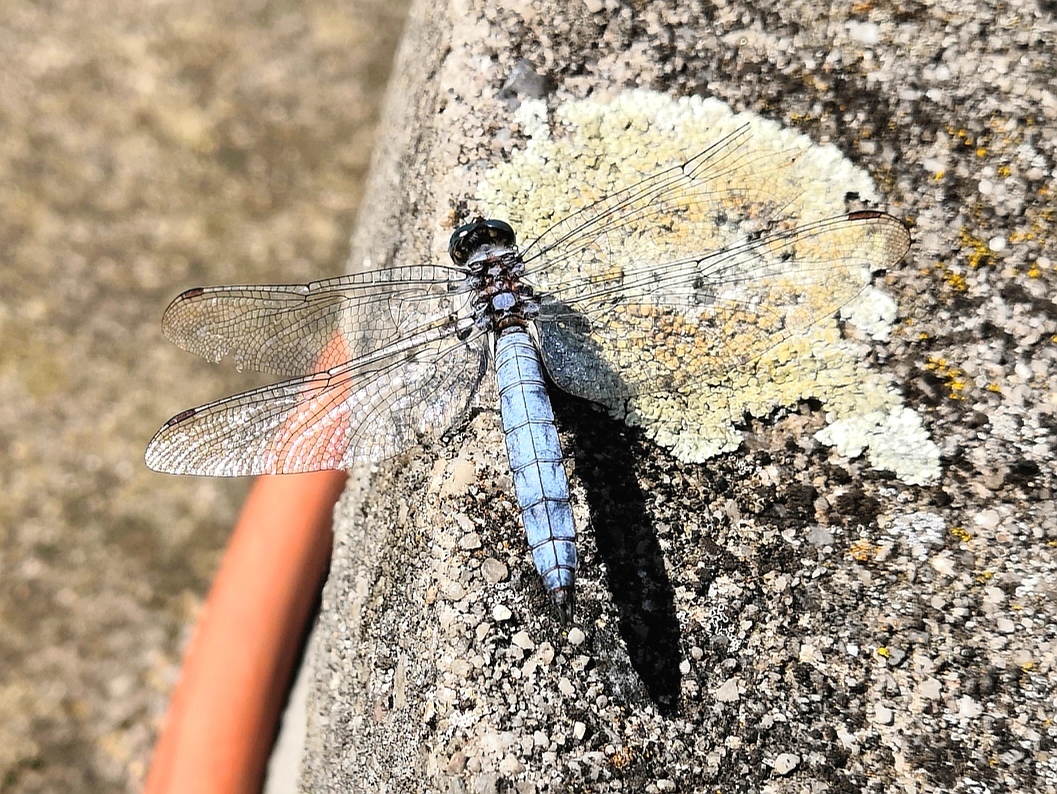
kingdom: Animalia
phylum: Arthropoda
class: Insecta
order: Odonata
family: Libellulidae
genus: Orthetrum
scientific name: Orthetrum brunneum
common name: Southern skimmer
